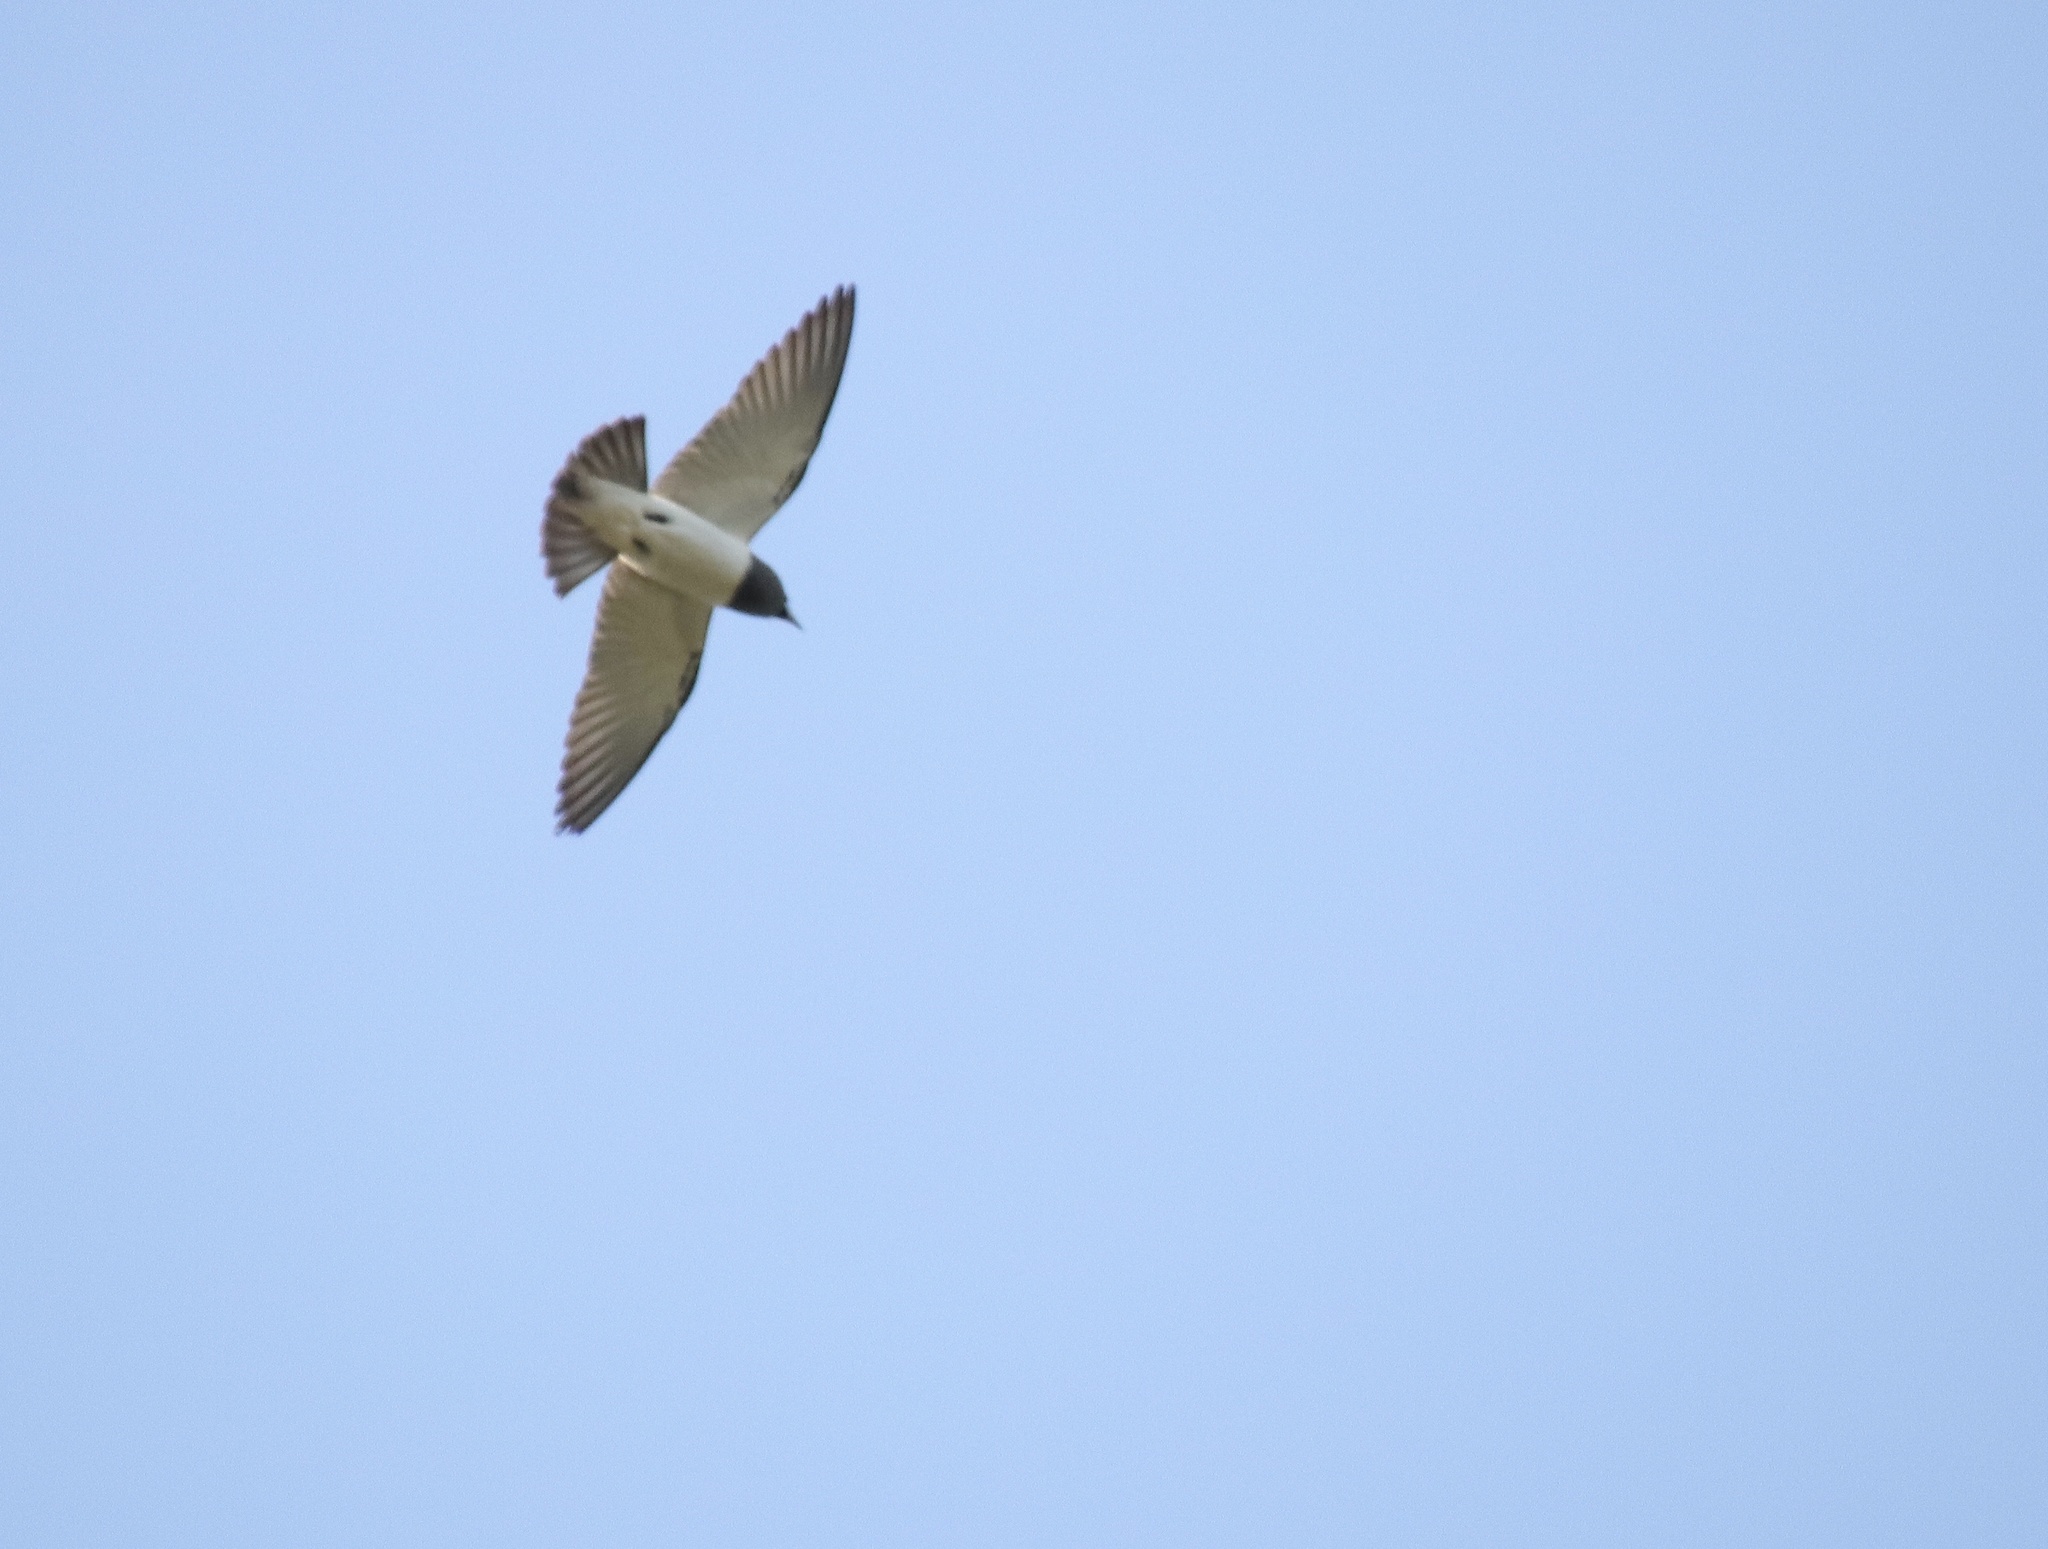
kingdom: Animalia
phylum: Chordata
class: Aves
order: Passeriformes
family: Artamidae
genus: Artamus
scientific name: Artamus leucoryn
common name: White-breasted woodswallow
